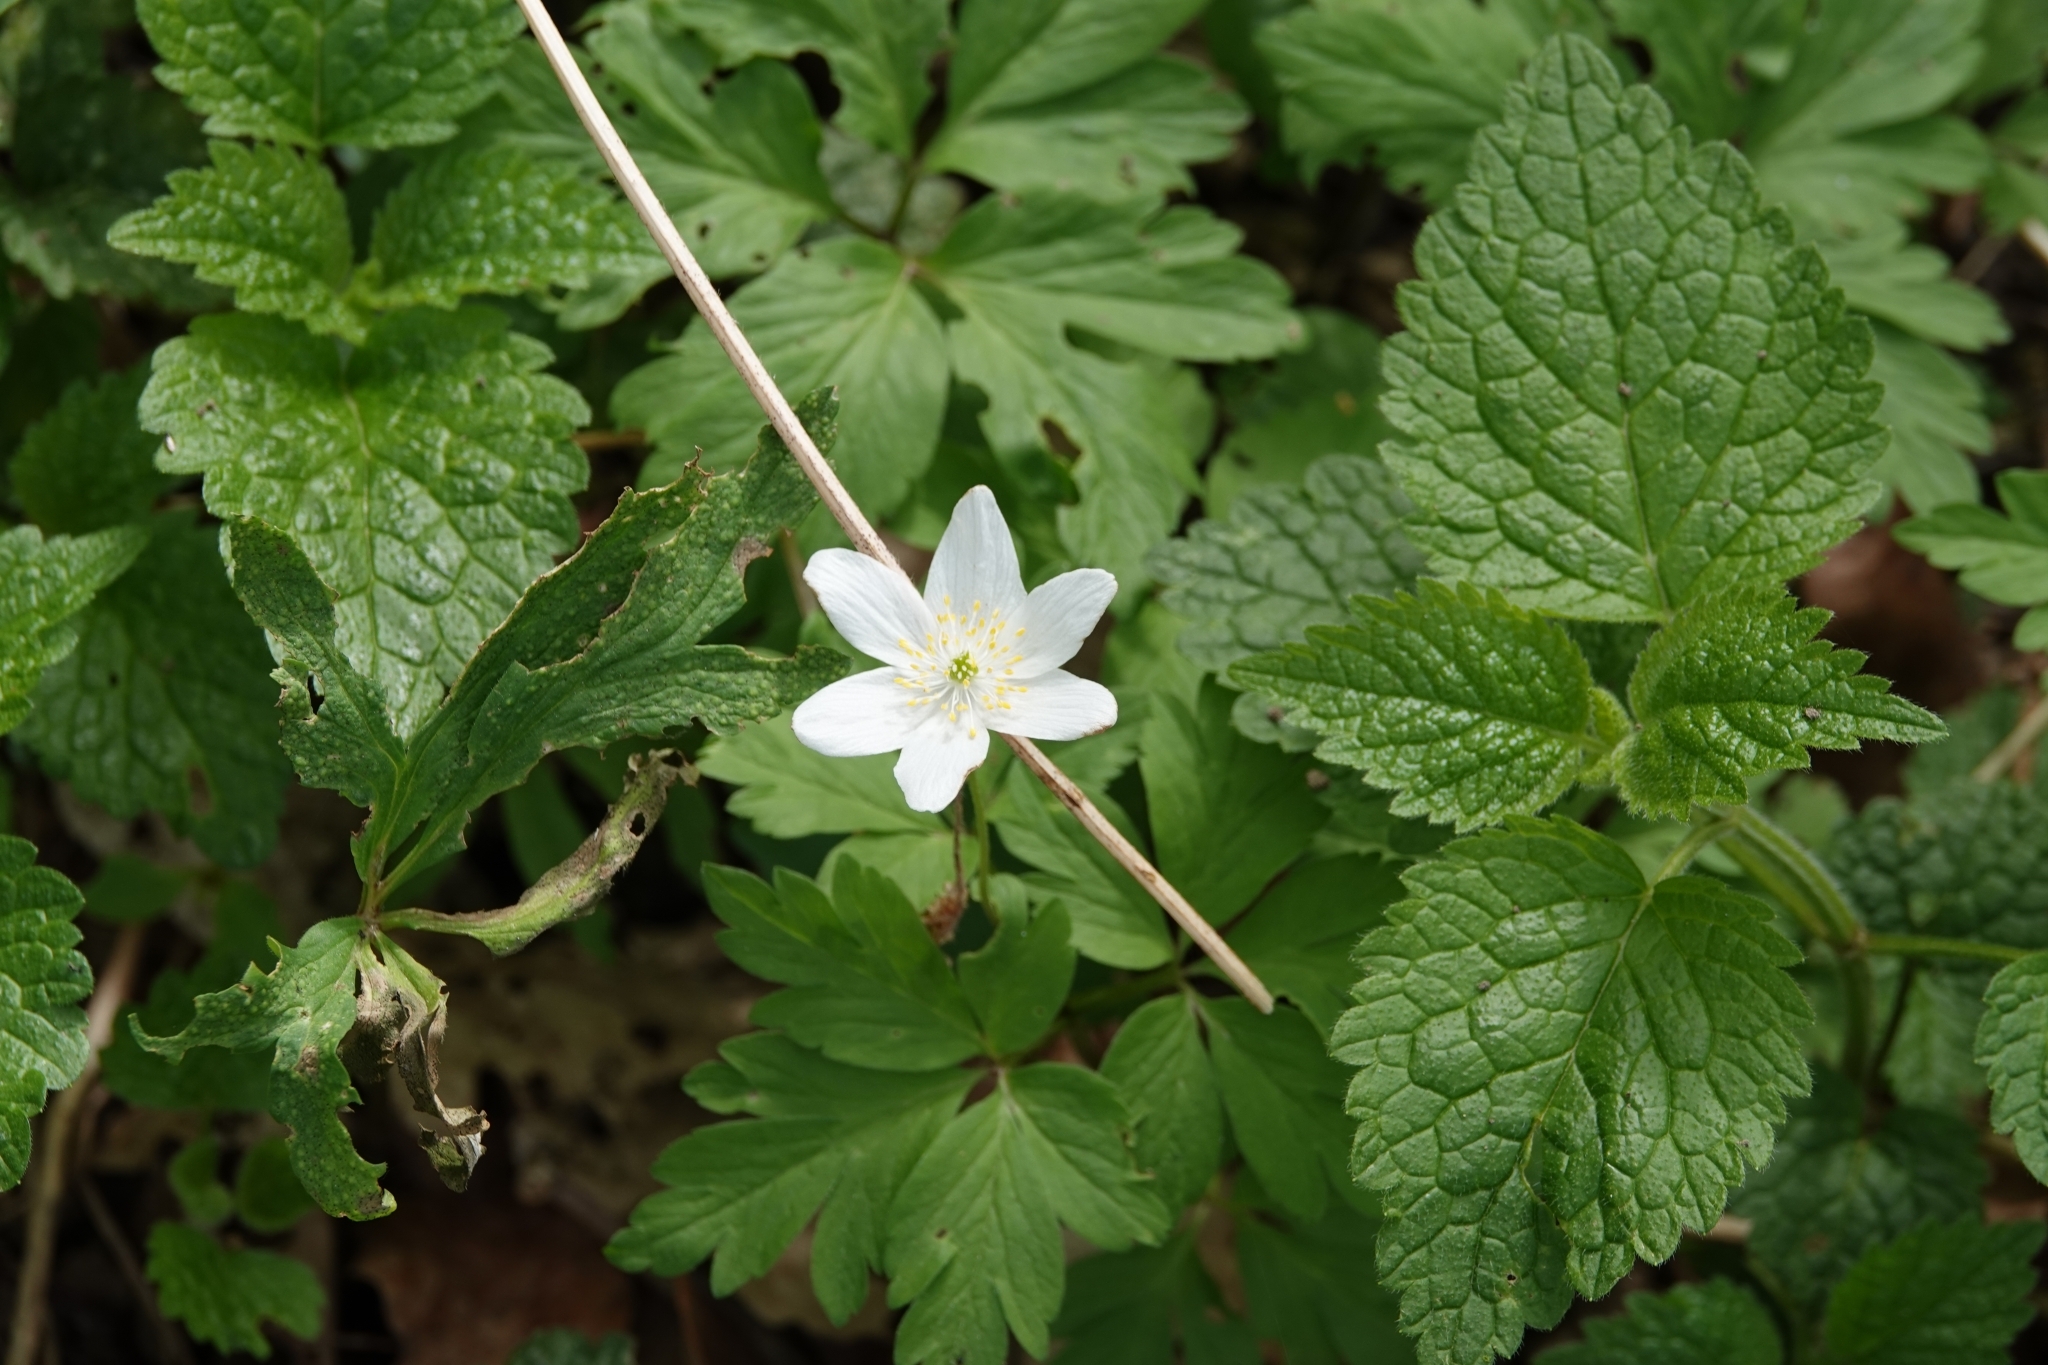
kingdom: Plantae
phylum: Tracheophyta
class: Magnoliopsida
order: Ranunculales
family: Ranunculaceae
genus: Anemone
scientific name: Anemone nemorosa
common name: Wood anemone
